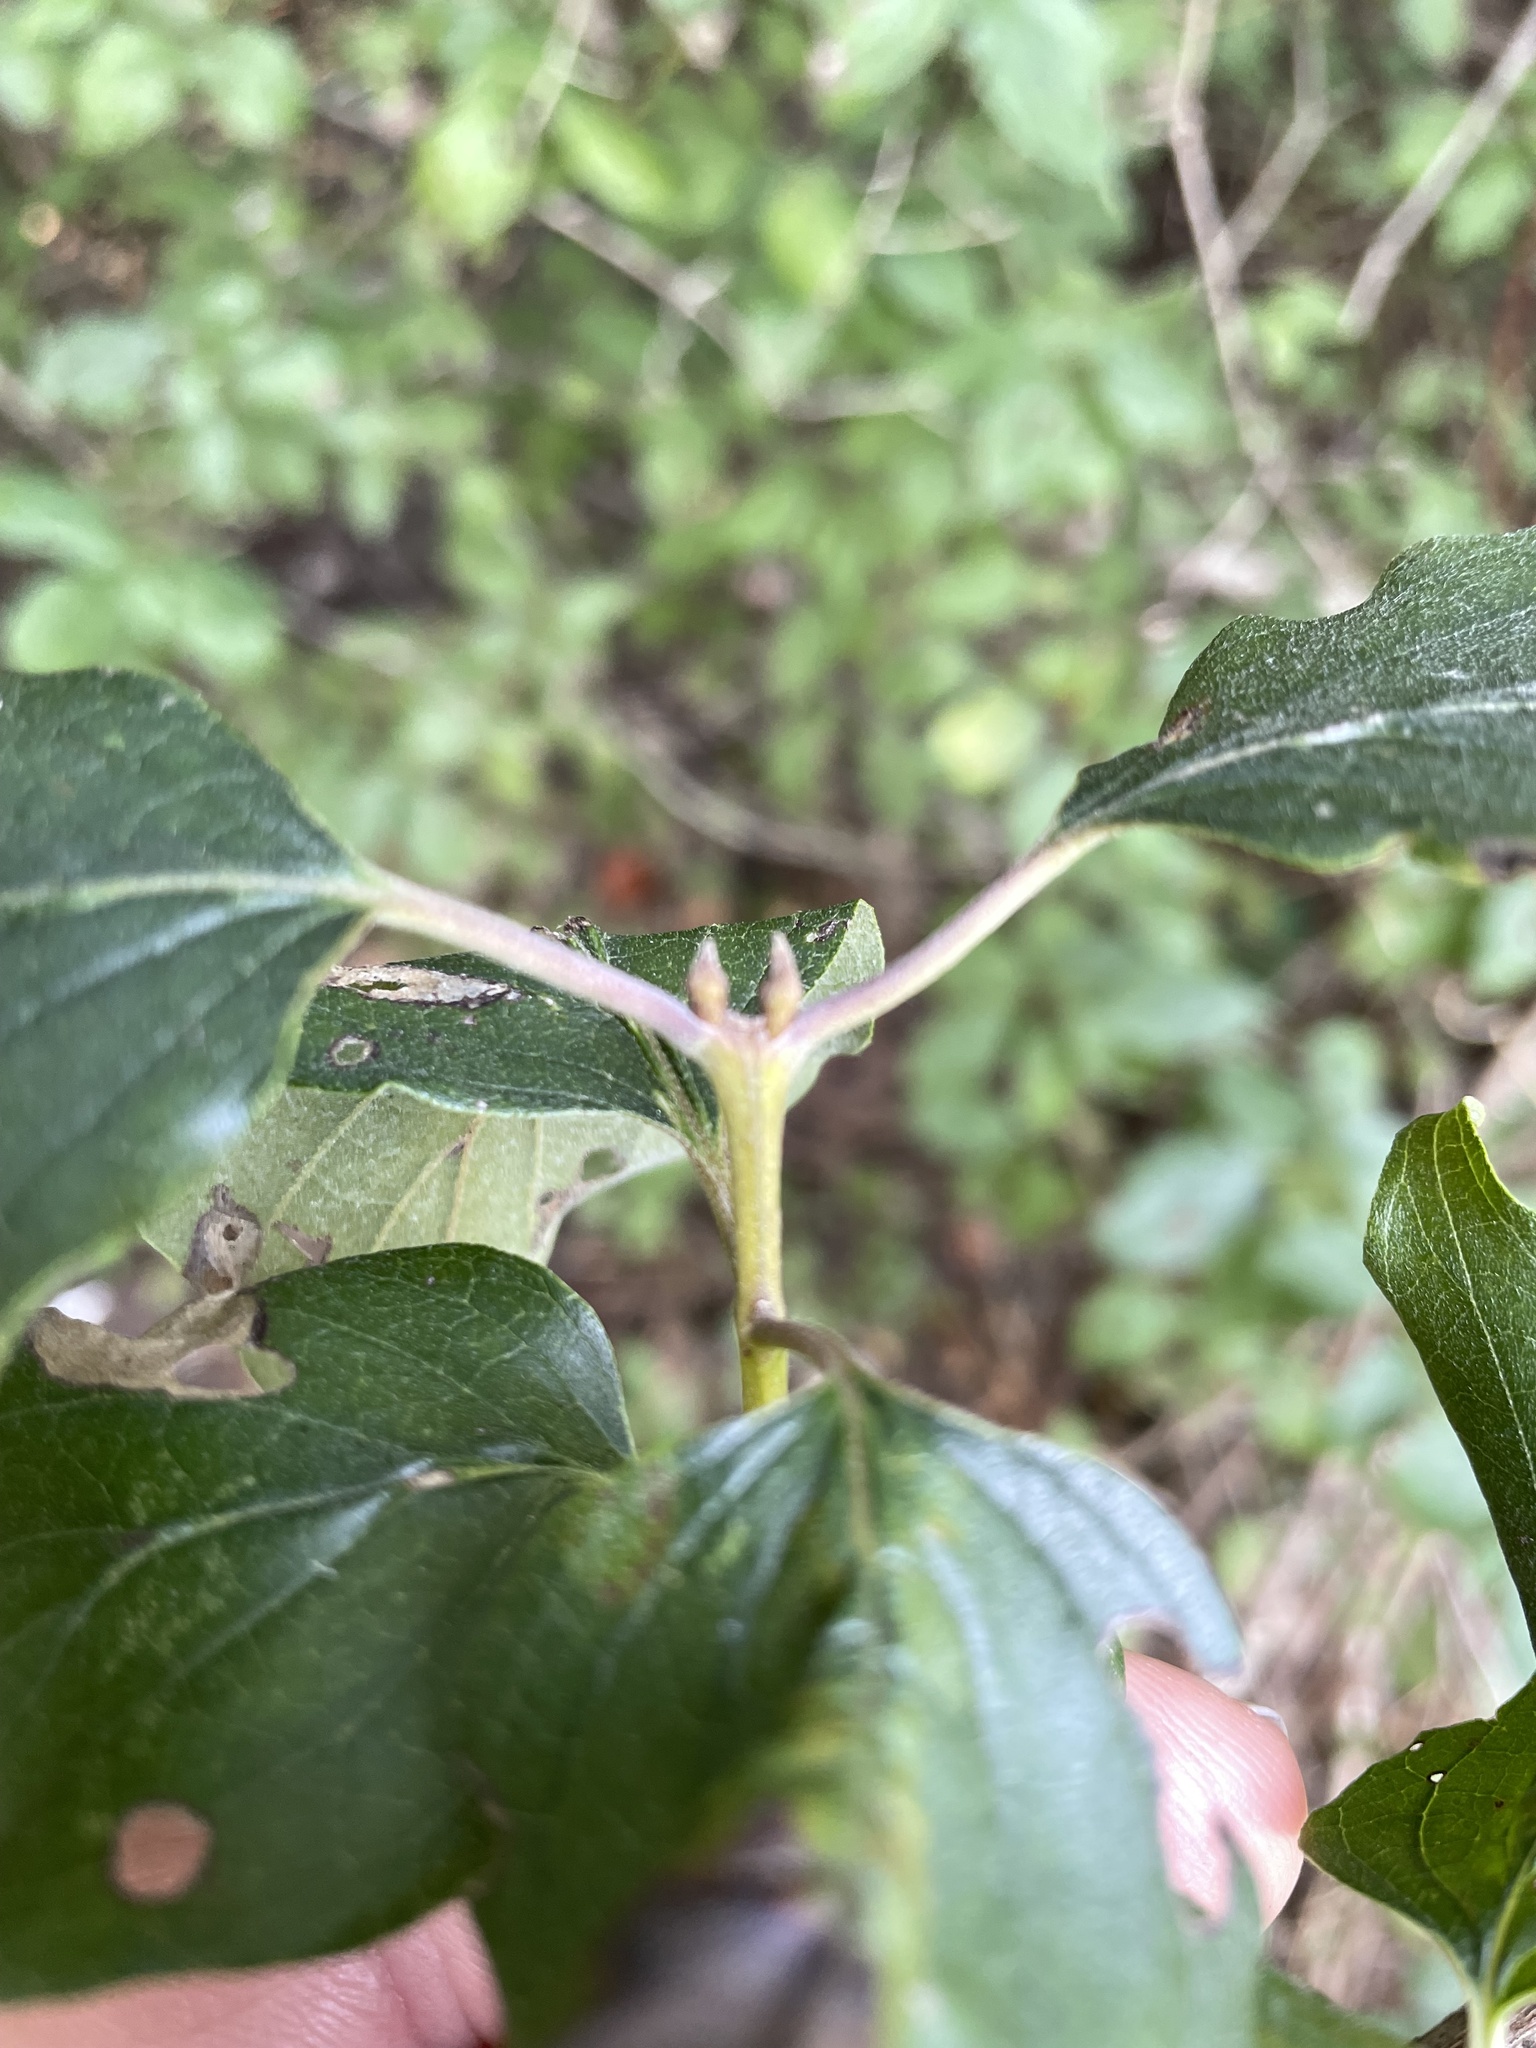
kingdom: Plantae
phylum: Tracheophyta
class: Magnoliopsida
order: Cornales
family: Cornaceae
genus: Cornus
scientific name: Cornus drummondii
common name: Rough-leaf dogwood
